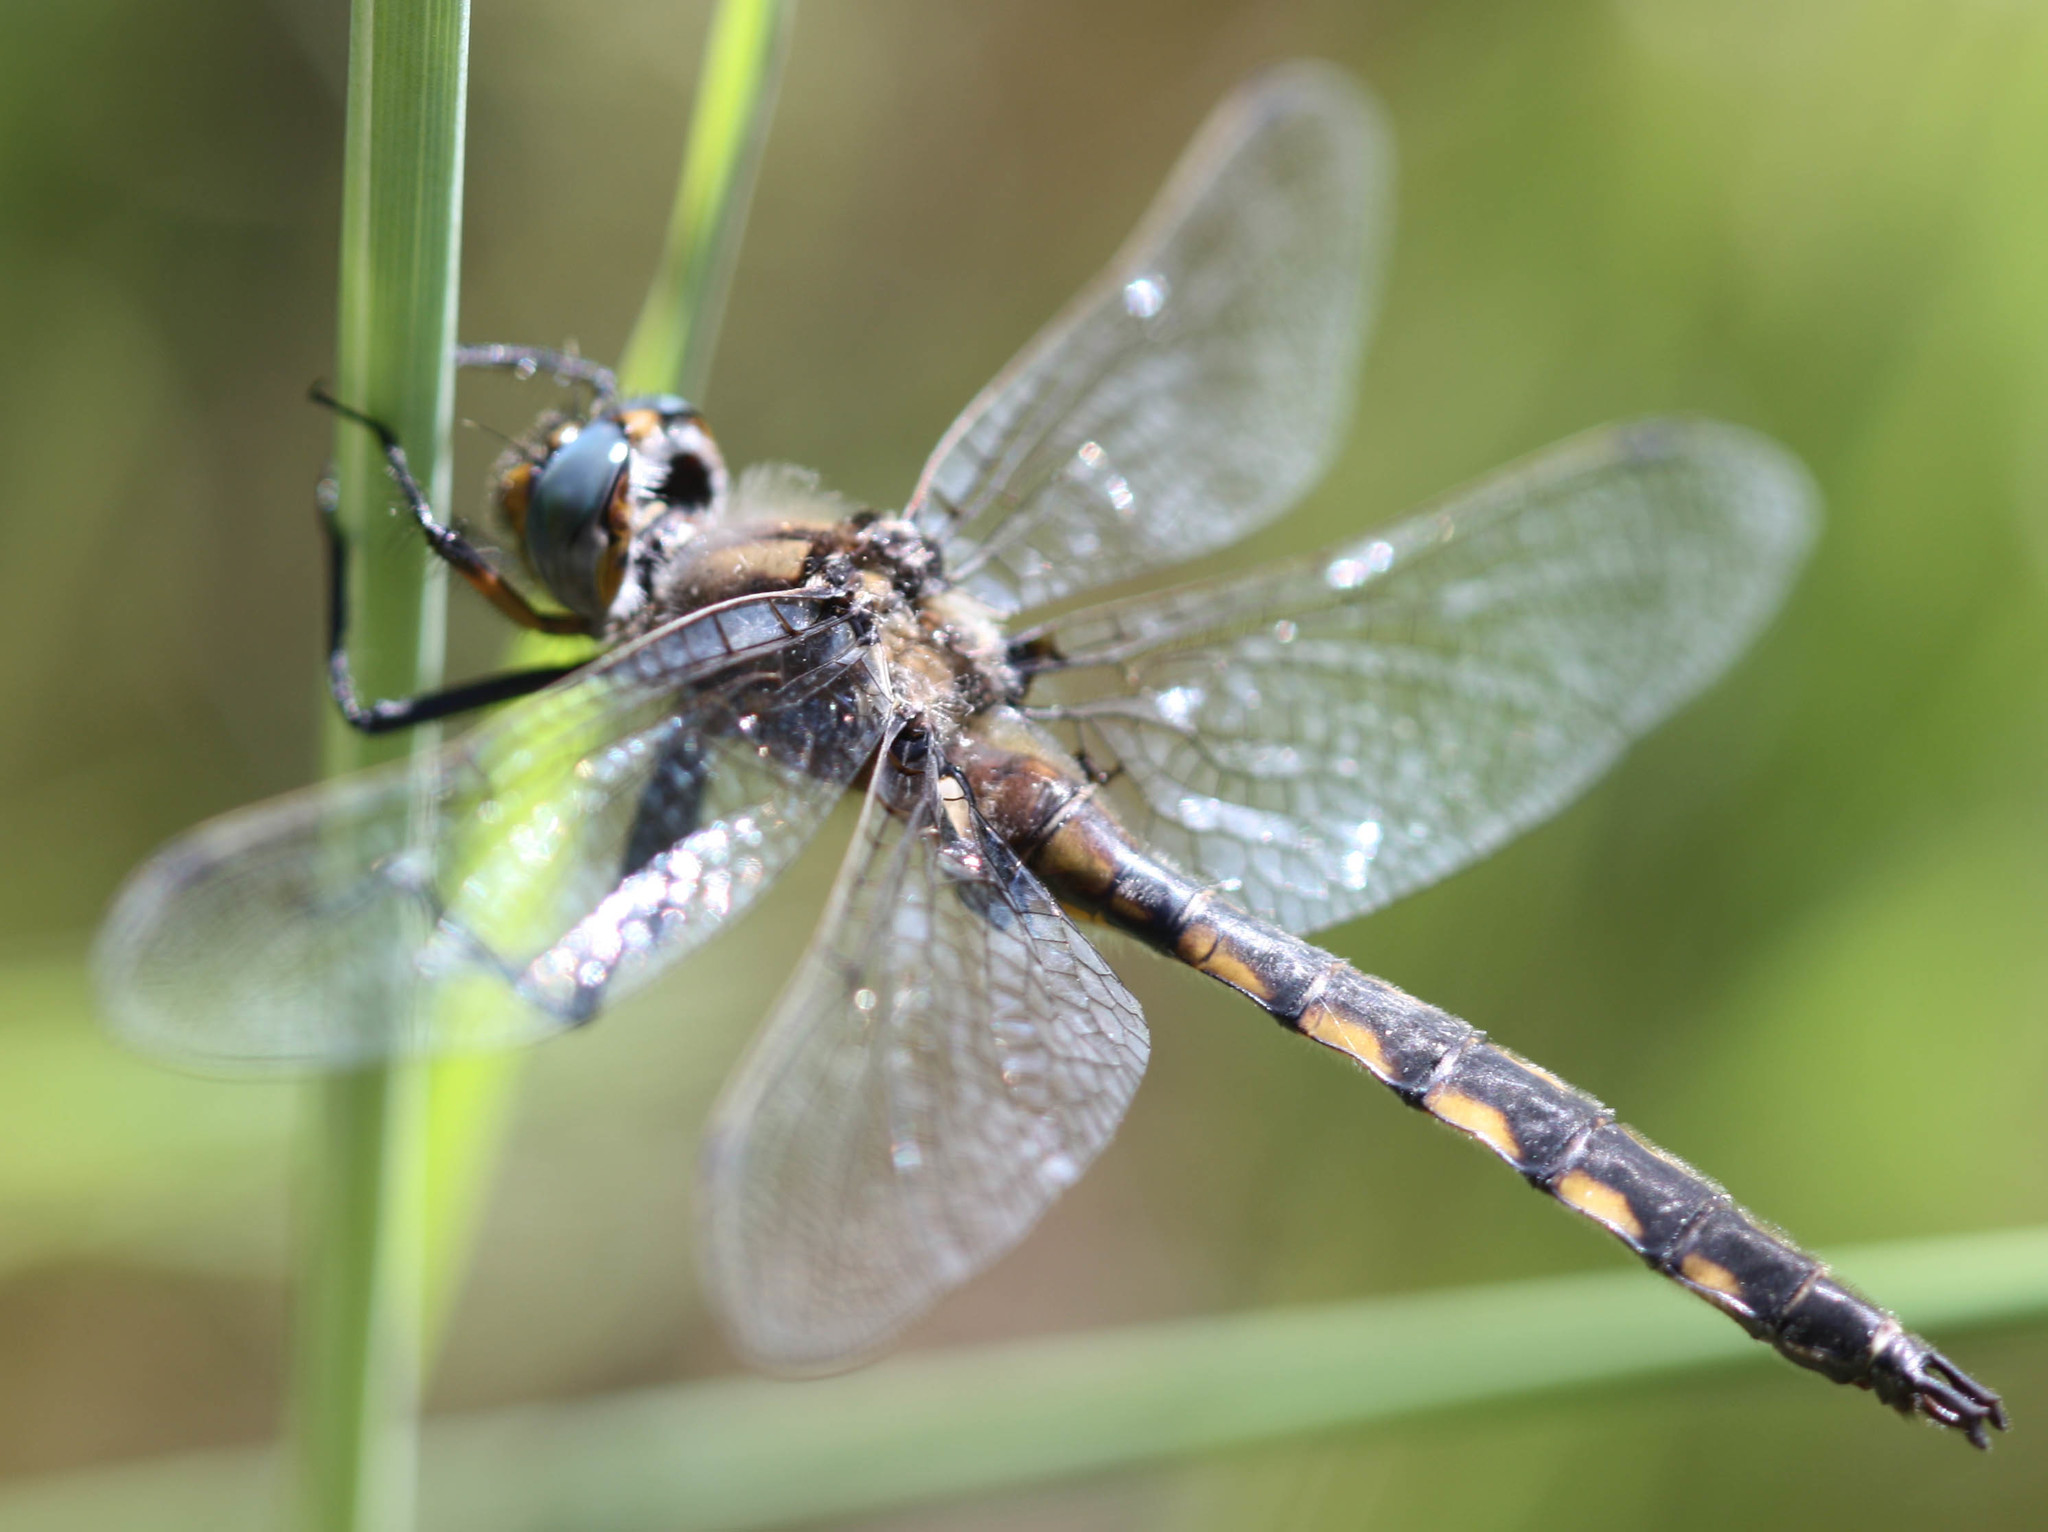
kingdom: Animalia
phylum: Arthropoda
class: Insecta
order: Odonata
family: Corduliidae
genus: Epitheca
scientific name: Epitheca canis
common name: Beaverpond baskettail
